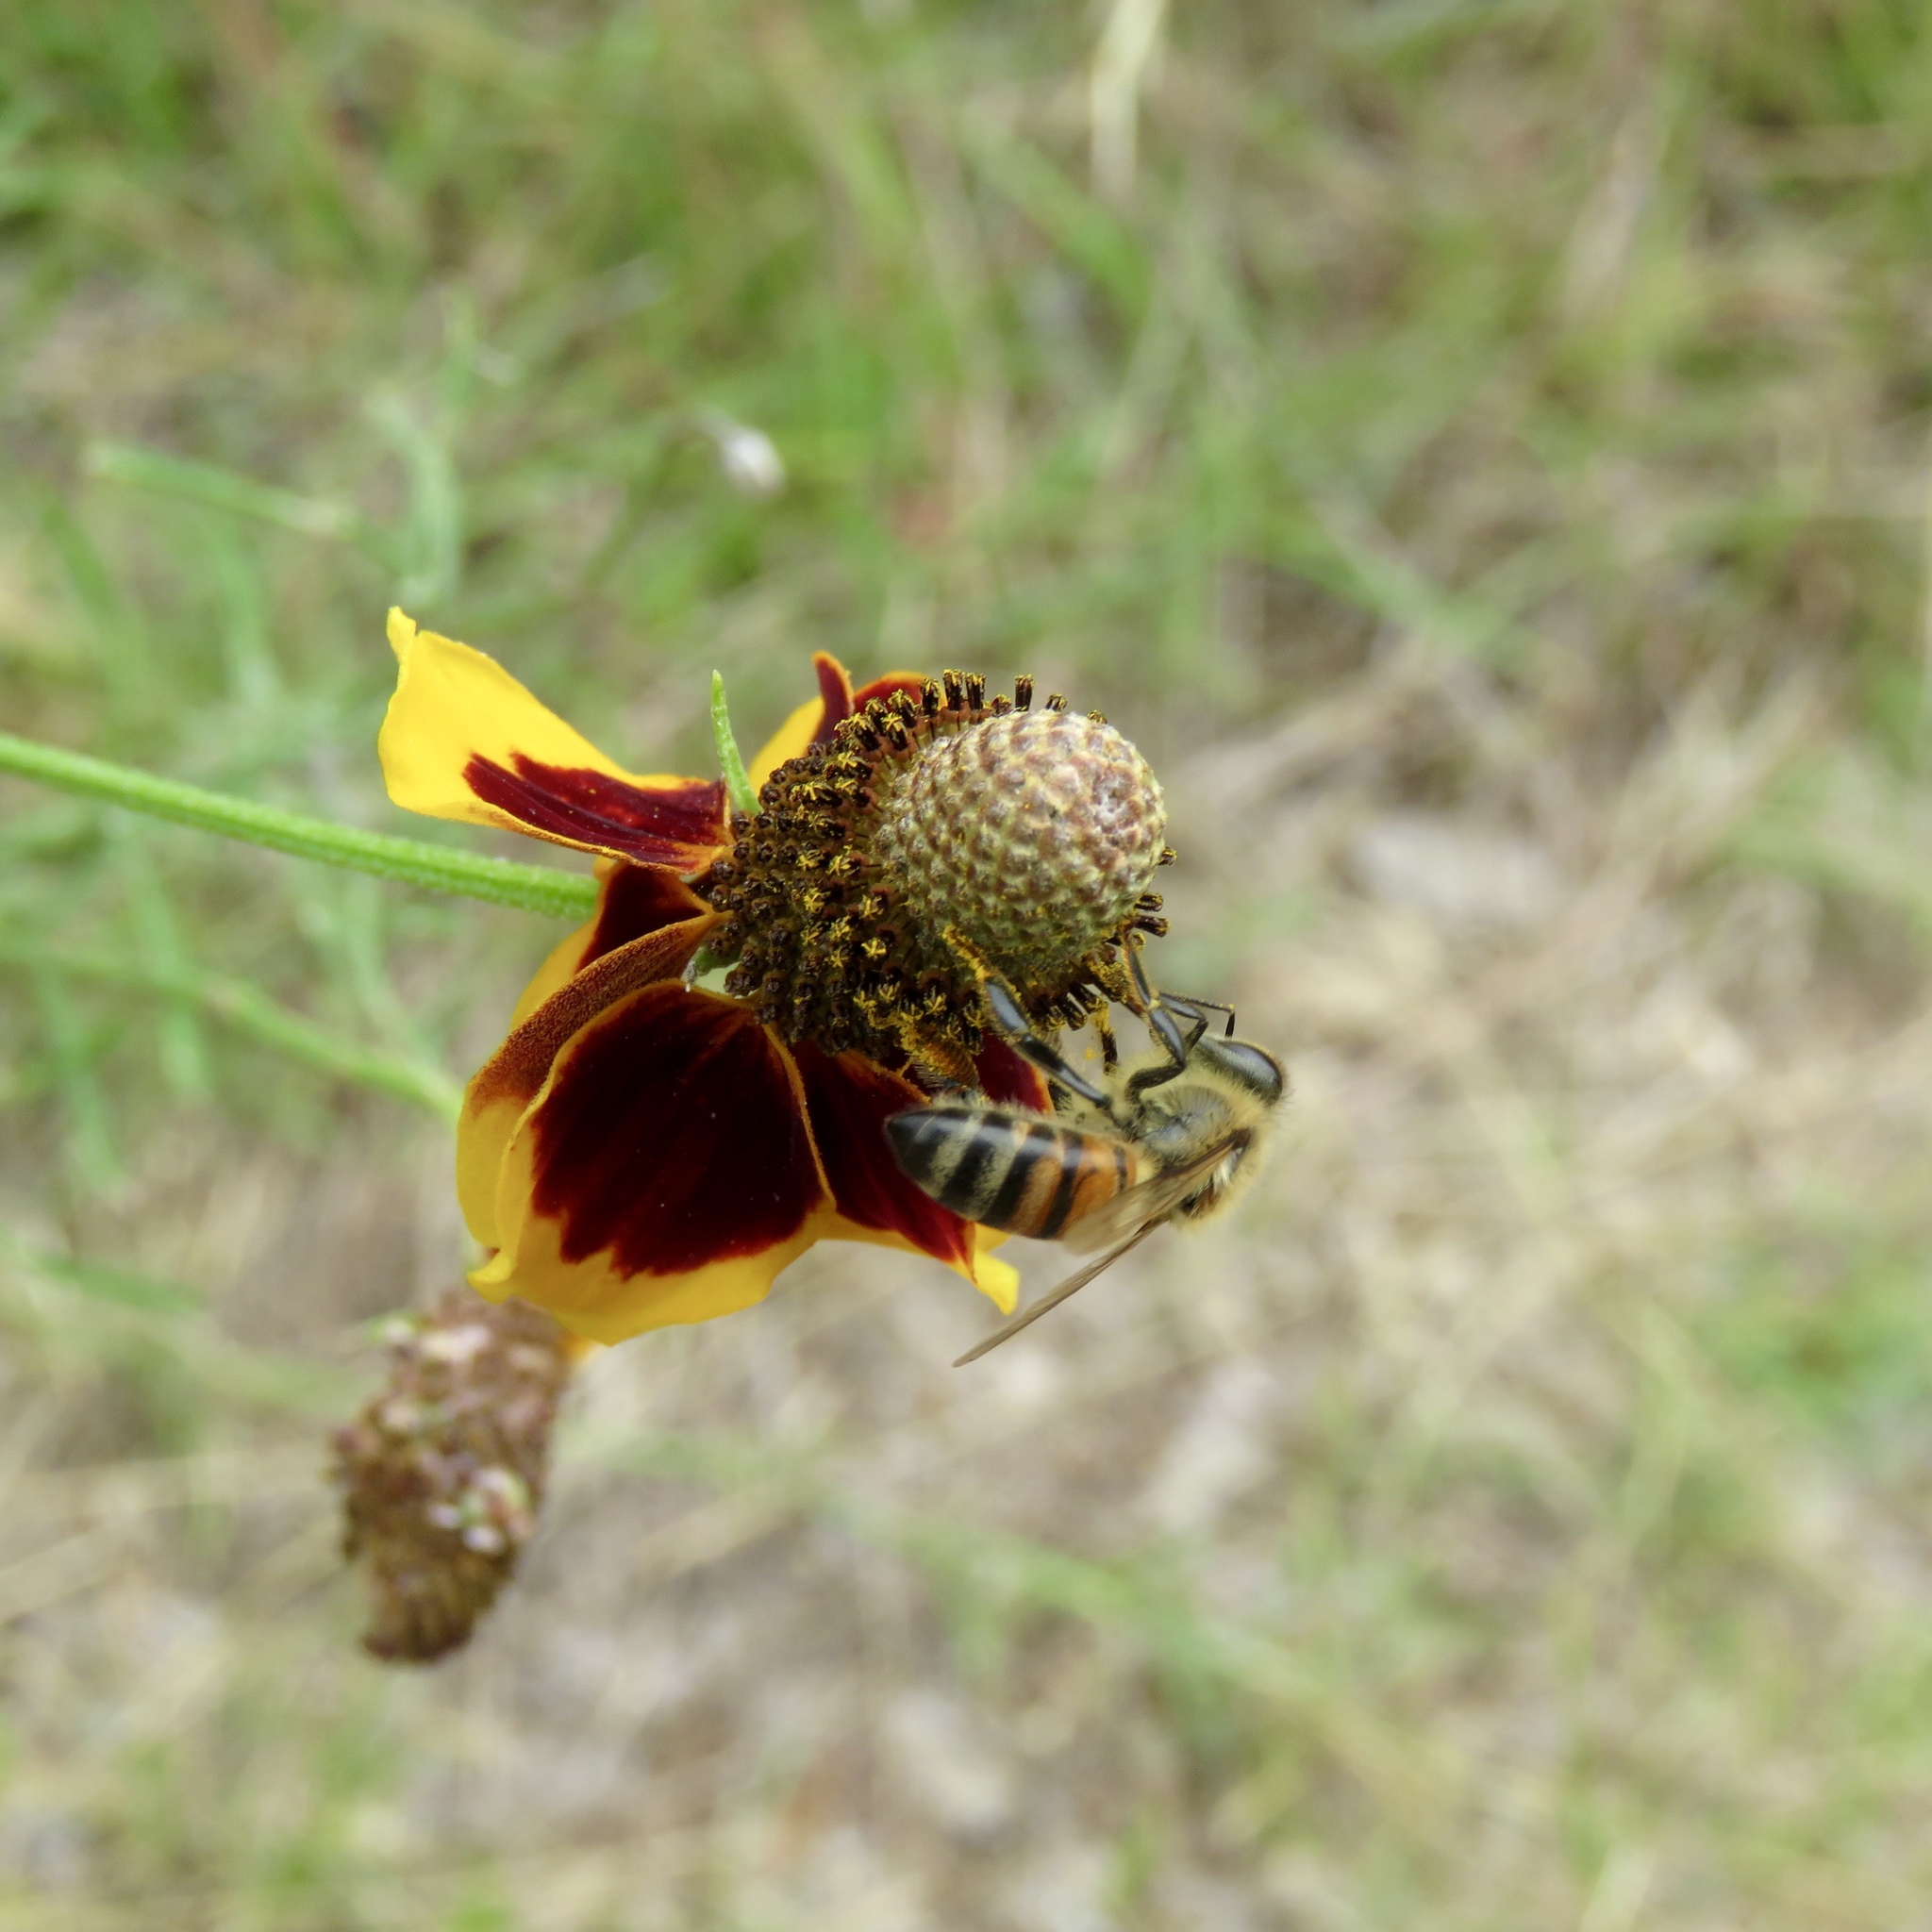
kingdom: Animalia
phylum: Arthropoda
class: Insecta
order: Hymenoptera
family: Apidae
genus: Apis
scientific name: Apis mellifera
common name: Honey bee
